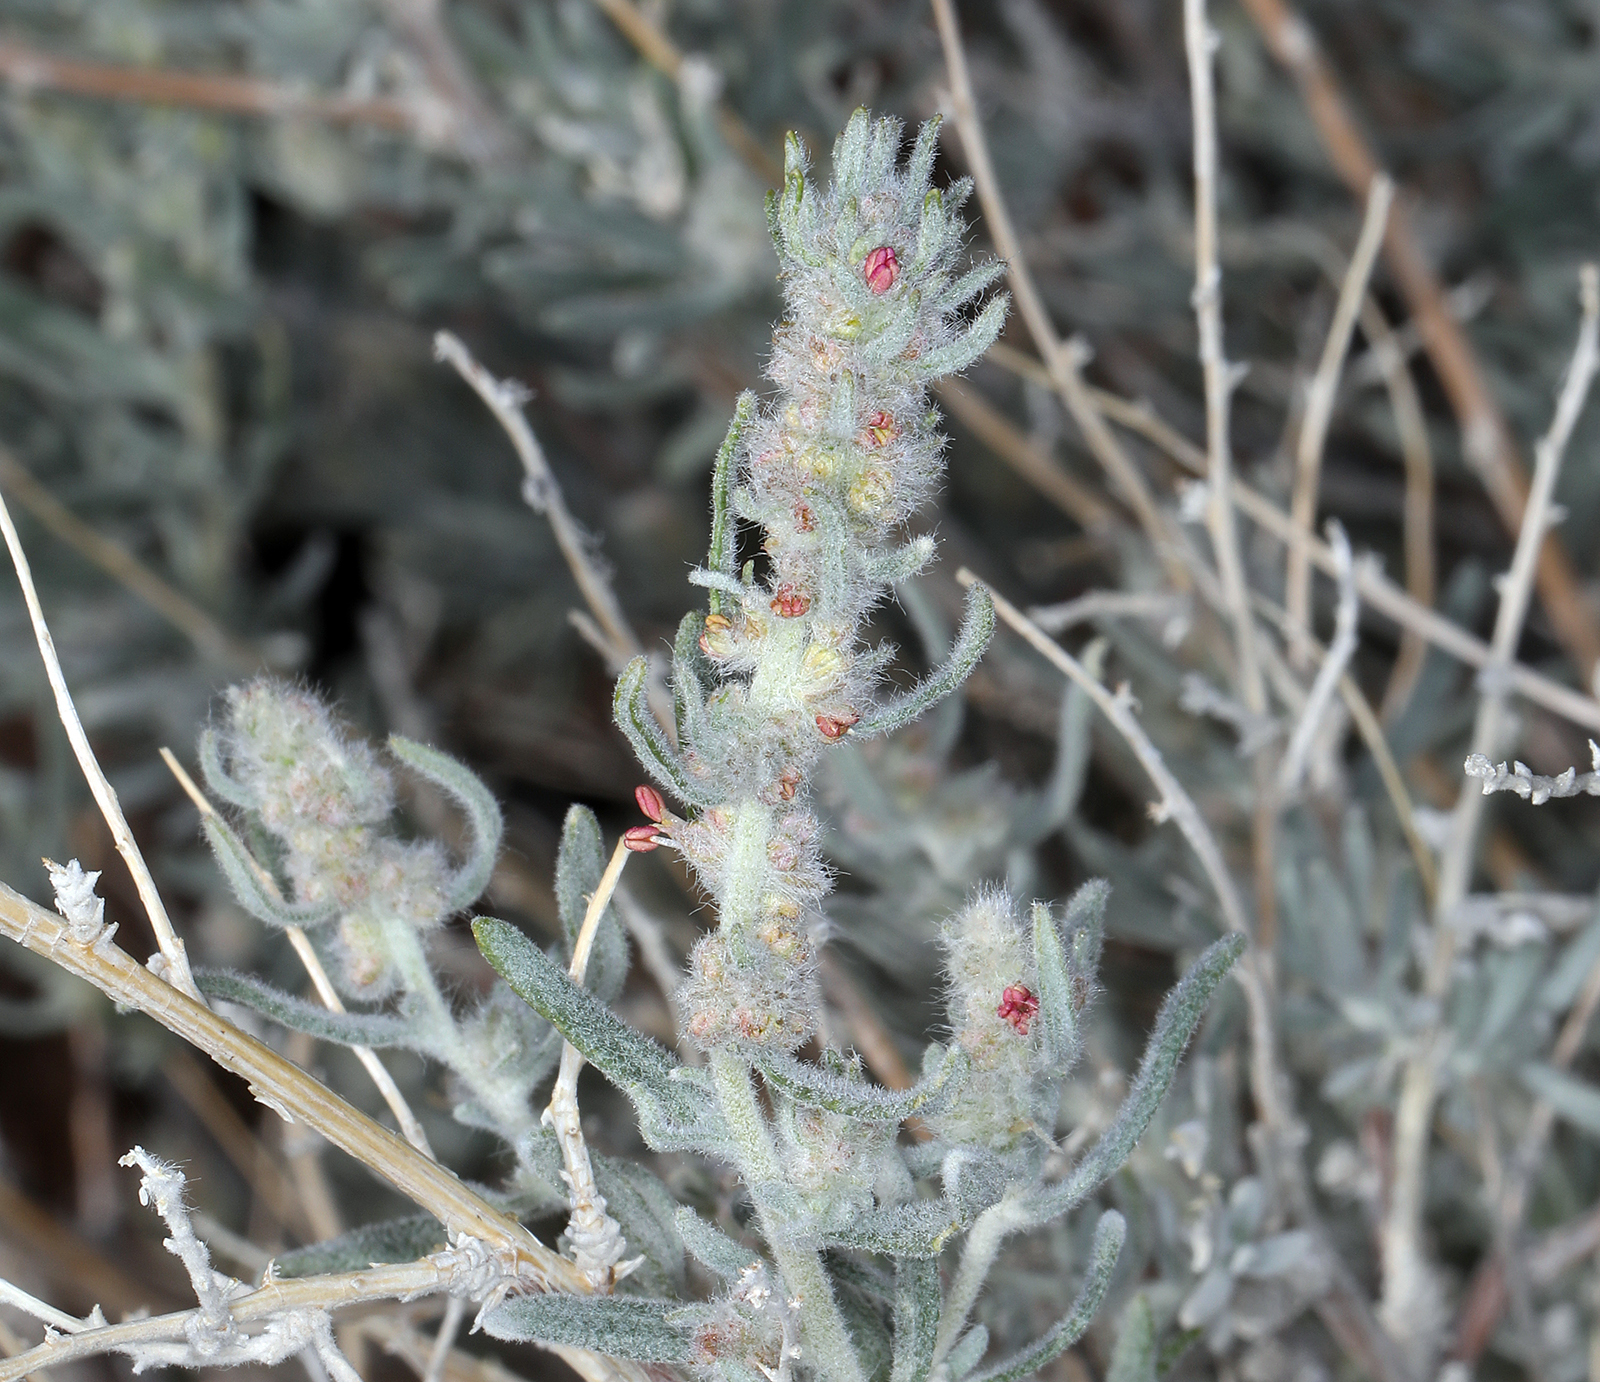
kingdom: Plantae
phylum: Tracheophyta
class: Magnoliopsida
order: Caryophyllales
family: Amaranthaceae
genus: Krascheninnikovia
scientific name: Krascheninnikovia lanata
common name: Winterfat
